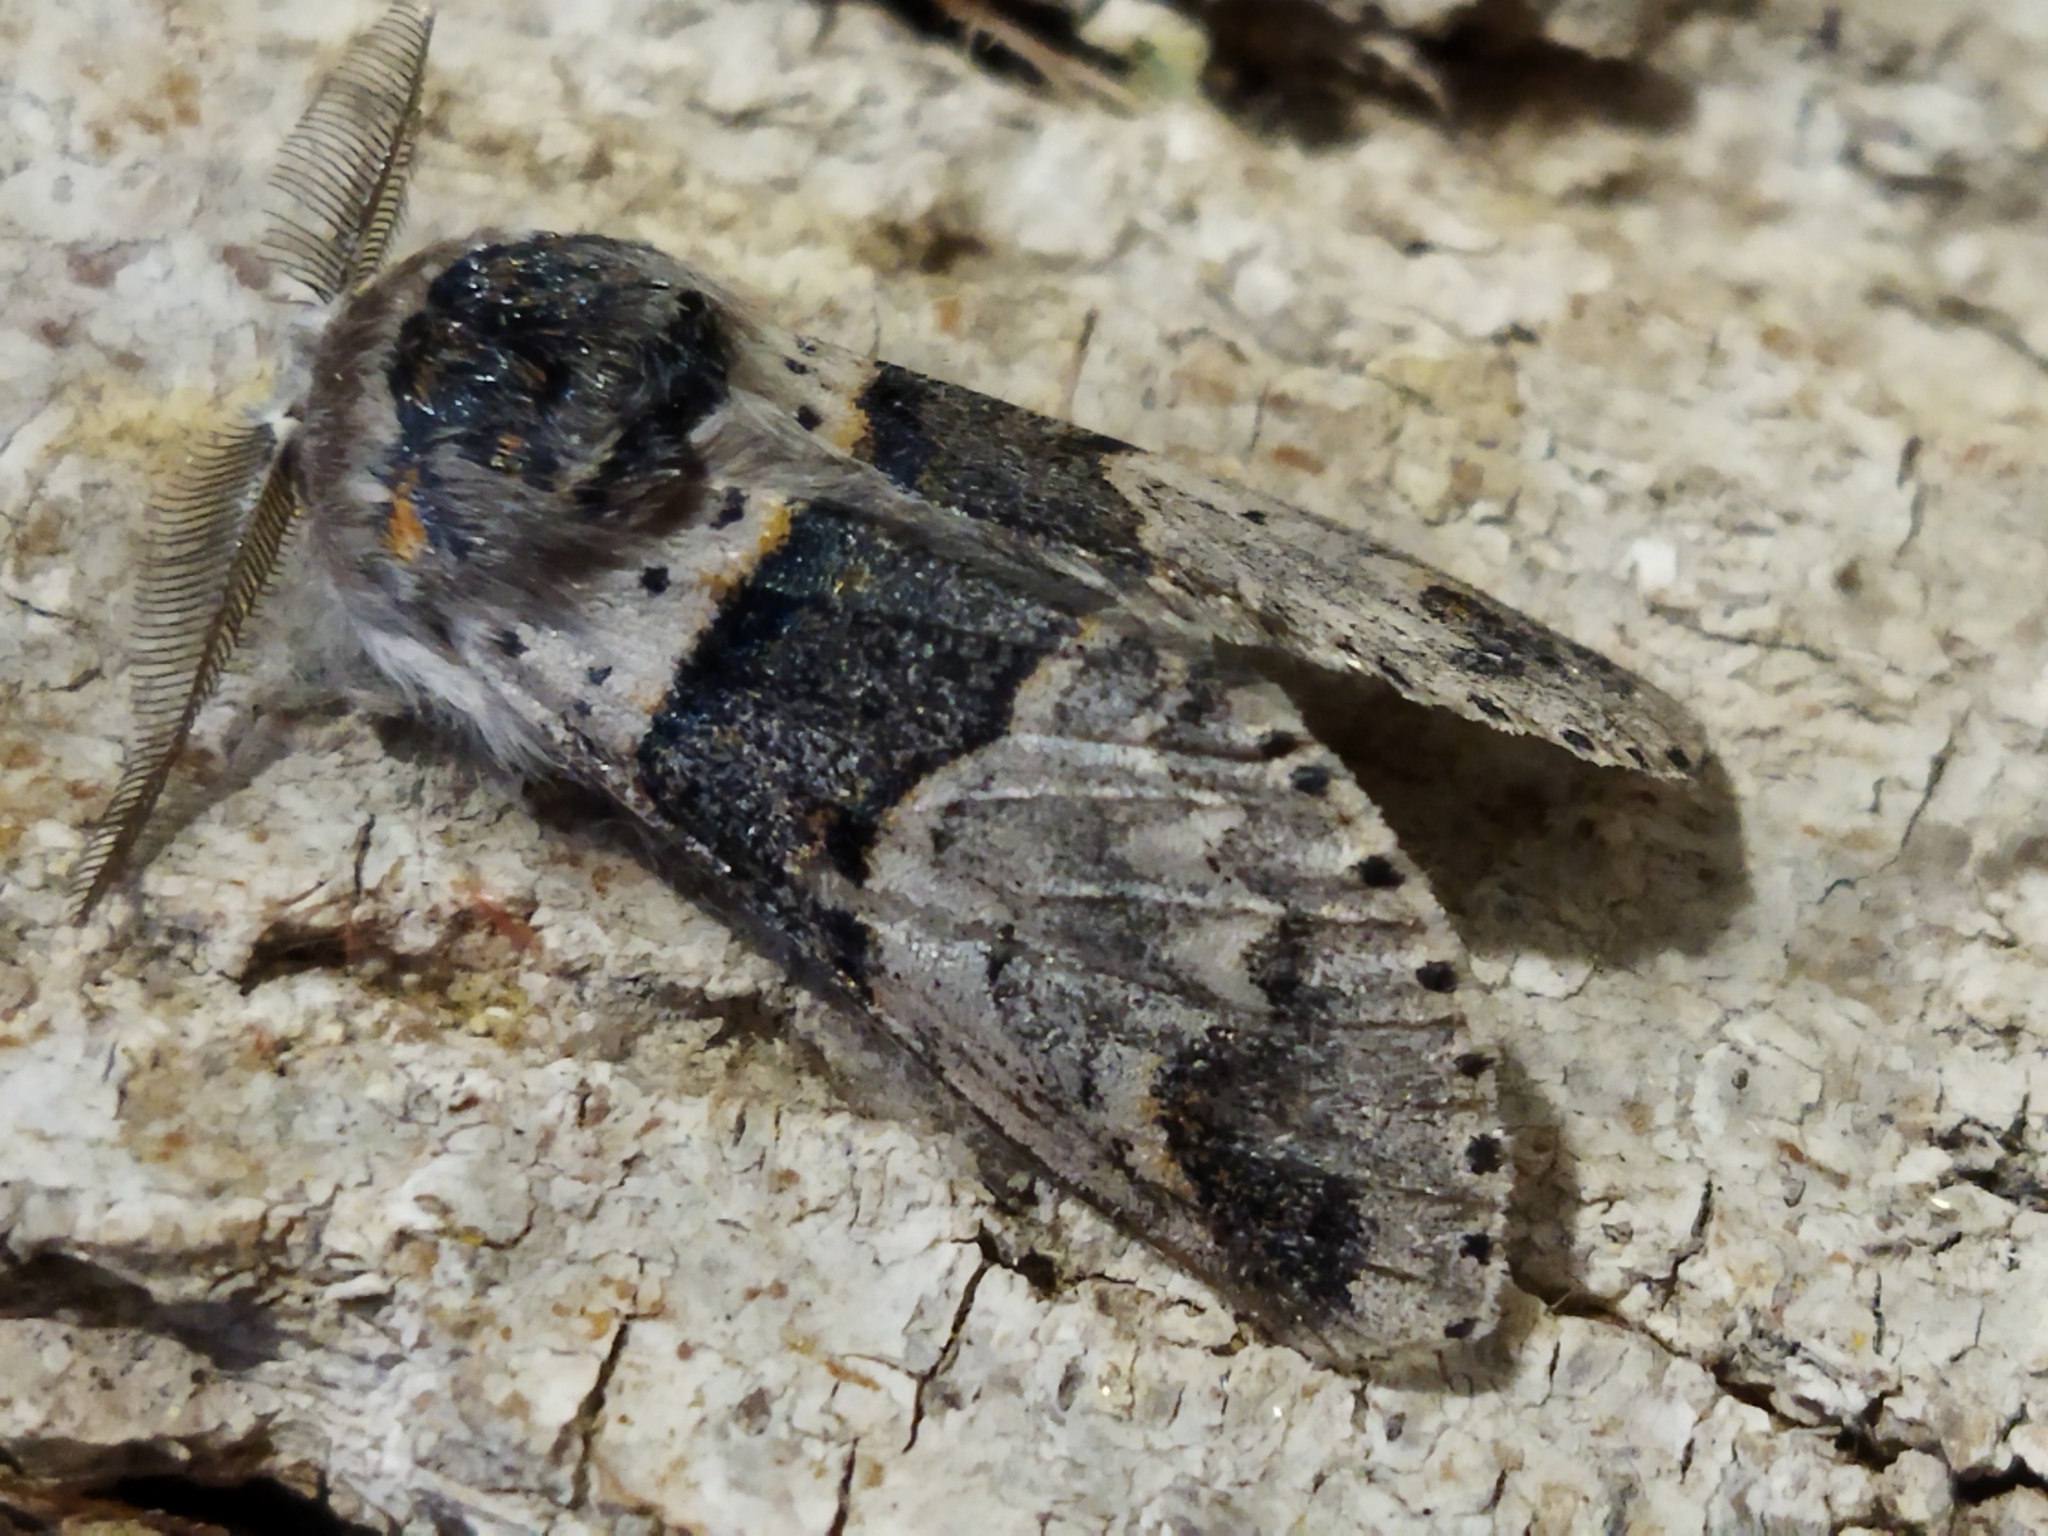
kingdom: Animalia
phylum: Arthropoda
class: Insecta
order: Lepidoptera
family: Notodontidae
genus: Furcula
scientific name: Furcula furcula
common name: Sallow kitten
